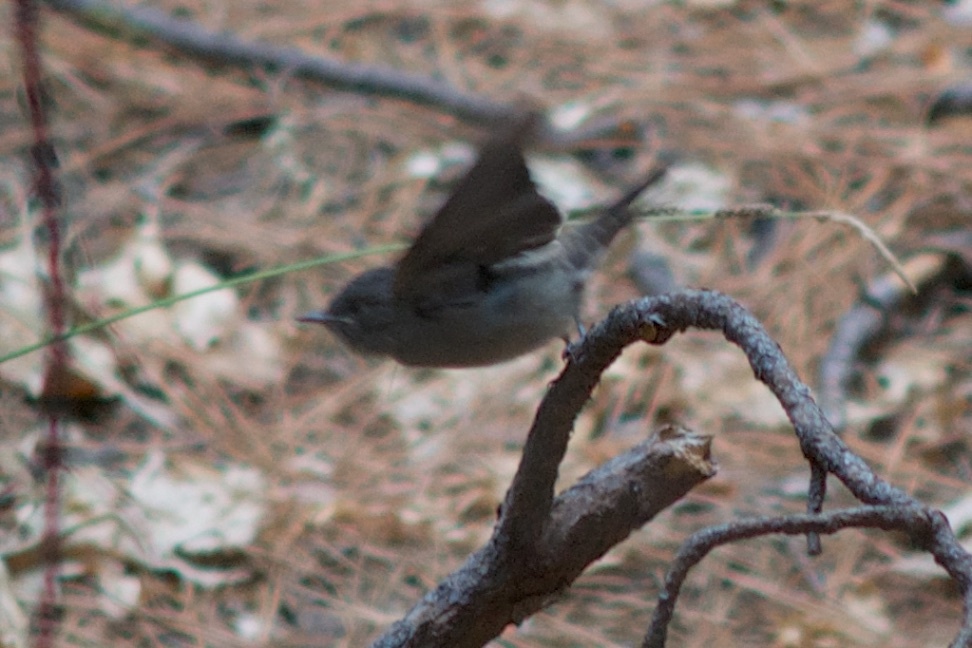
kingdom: Animalia
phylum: Chordata
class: Aves
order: Passeriformes
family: Tyrannidae
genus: Contopus
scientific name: Contopus sordidulus
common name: Western wood-pewee
